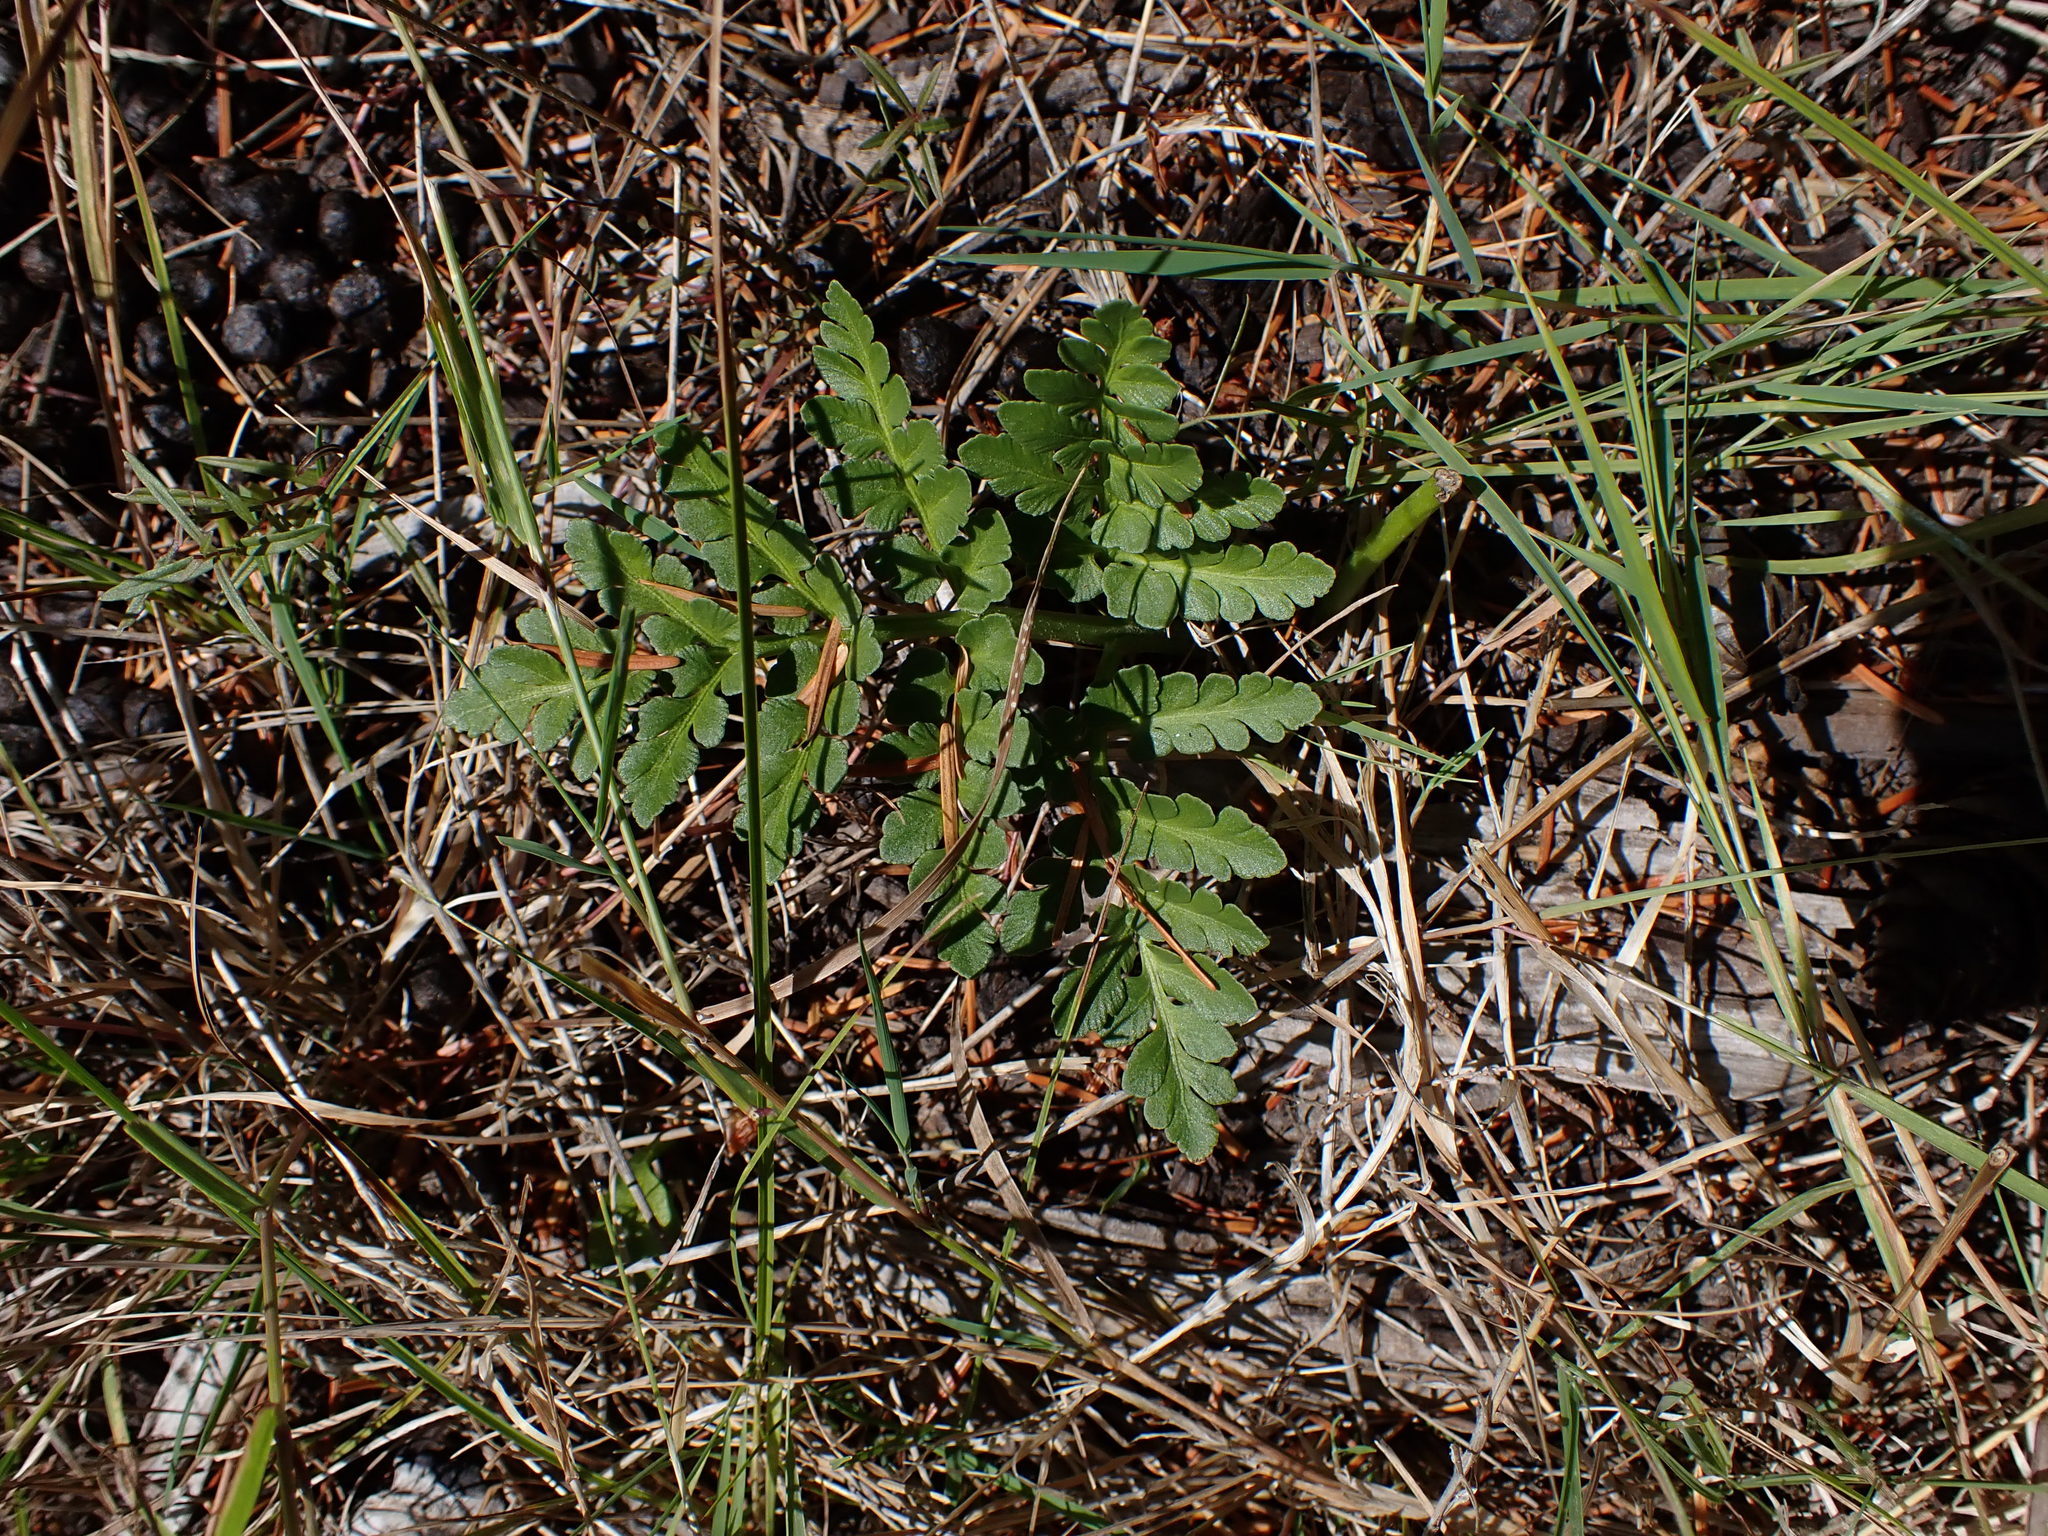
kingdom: Plantae
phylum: Tracheophyta
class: Polypodiopsida
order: Ophioglossales
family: Ophioglossaceae
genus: Sceptridium
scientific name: Sceptridium multifidum
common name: Leathery grape fern
